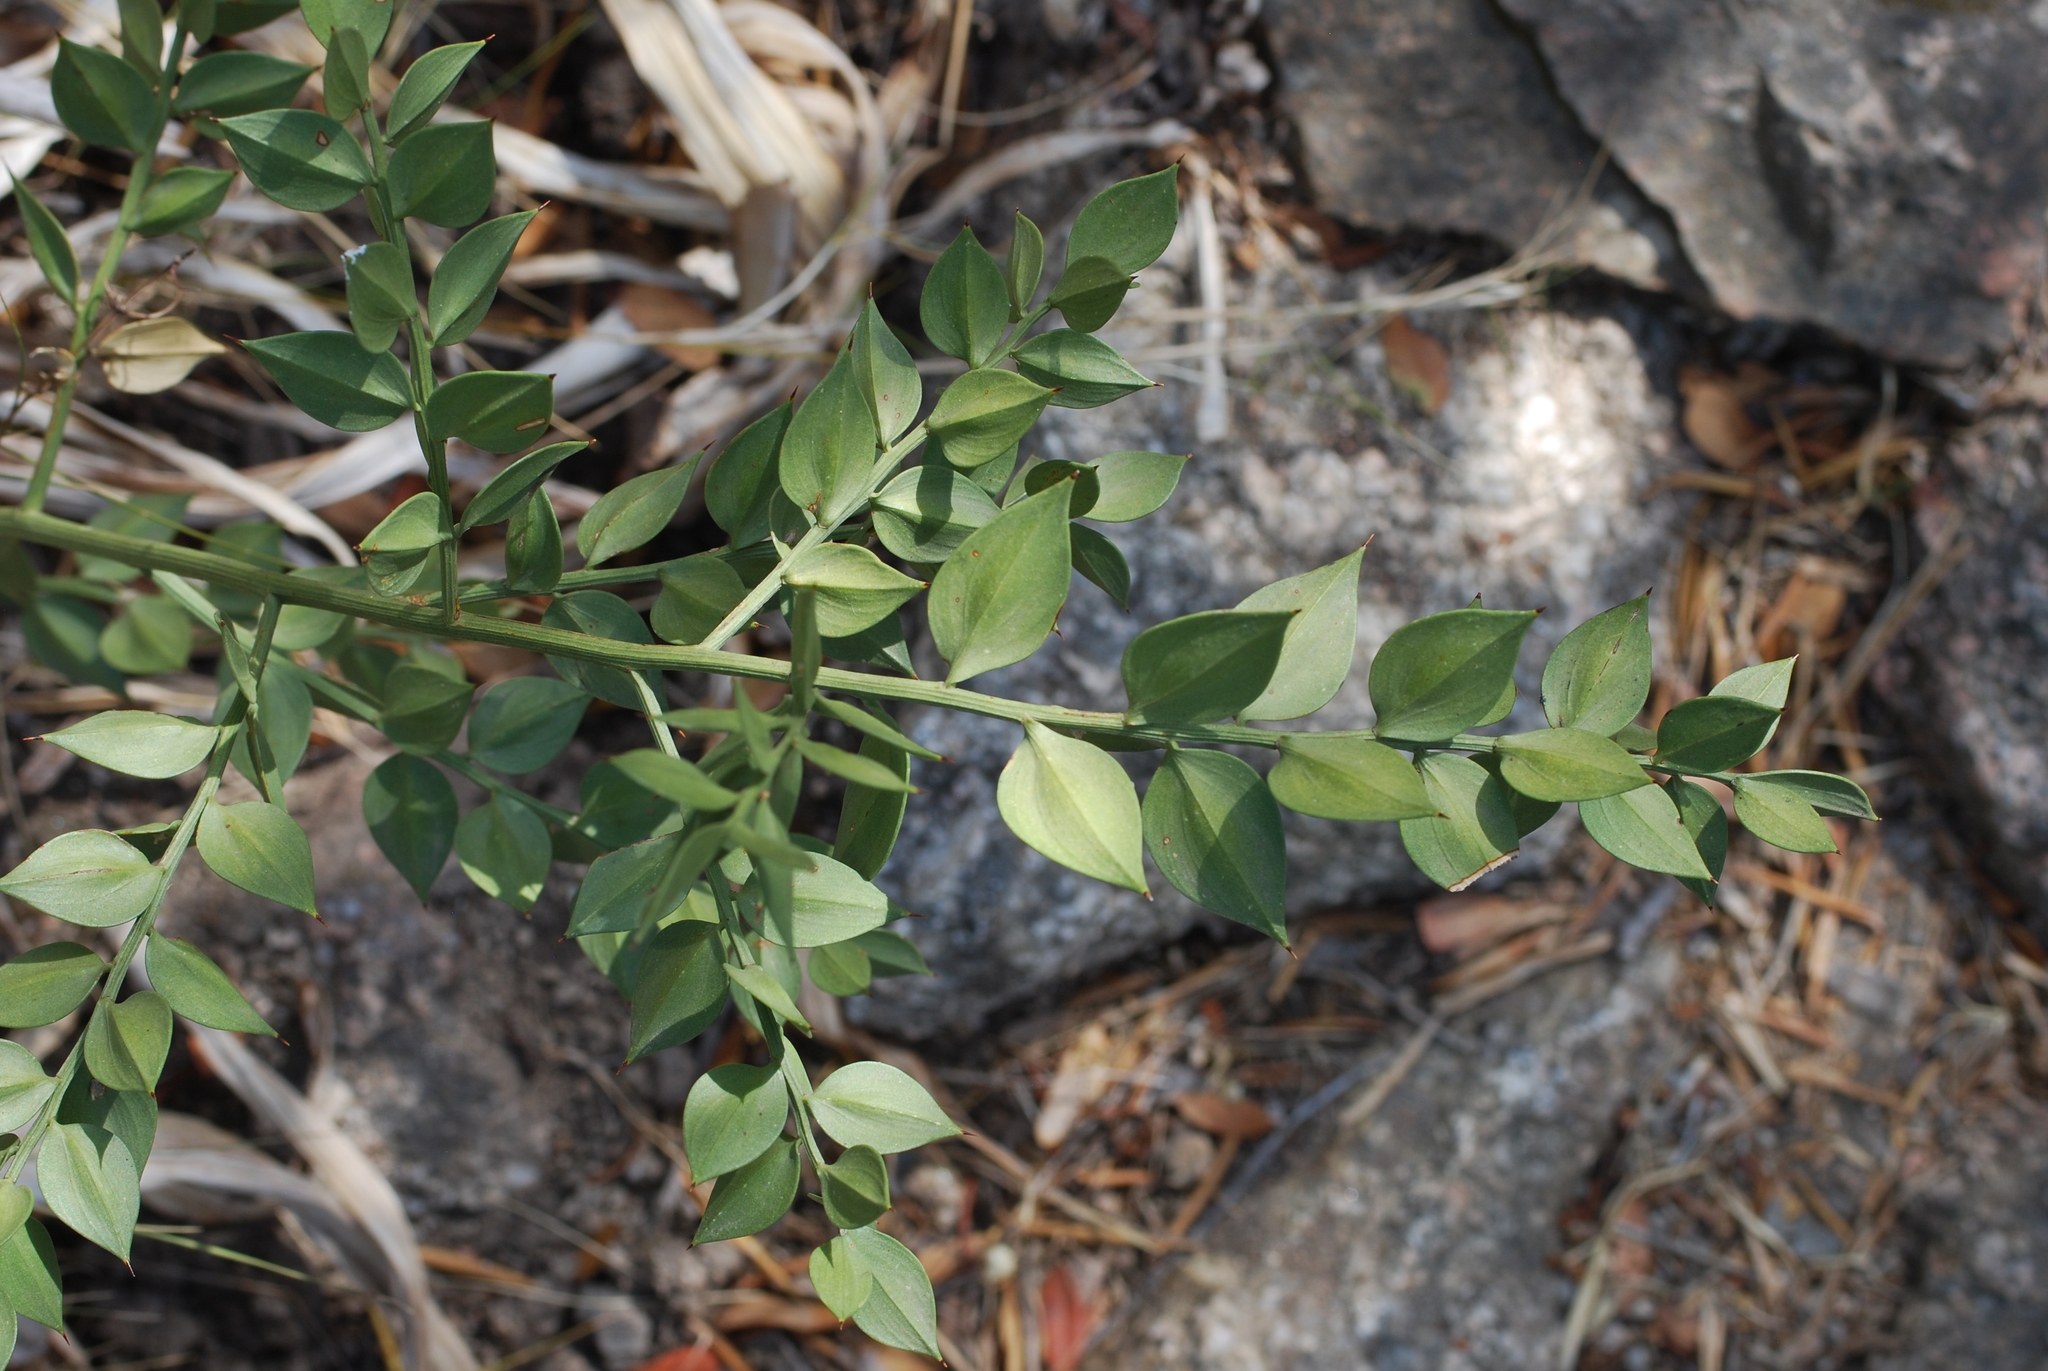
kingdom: Plantae
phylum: Tracheophyta
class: Liliopsida
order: Asparagales
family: Asparagaceae
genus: Ruscus
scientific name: Ruscus aculeatus
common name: Butcher's-broom
